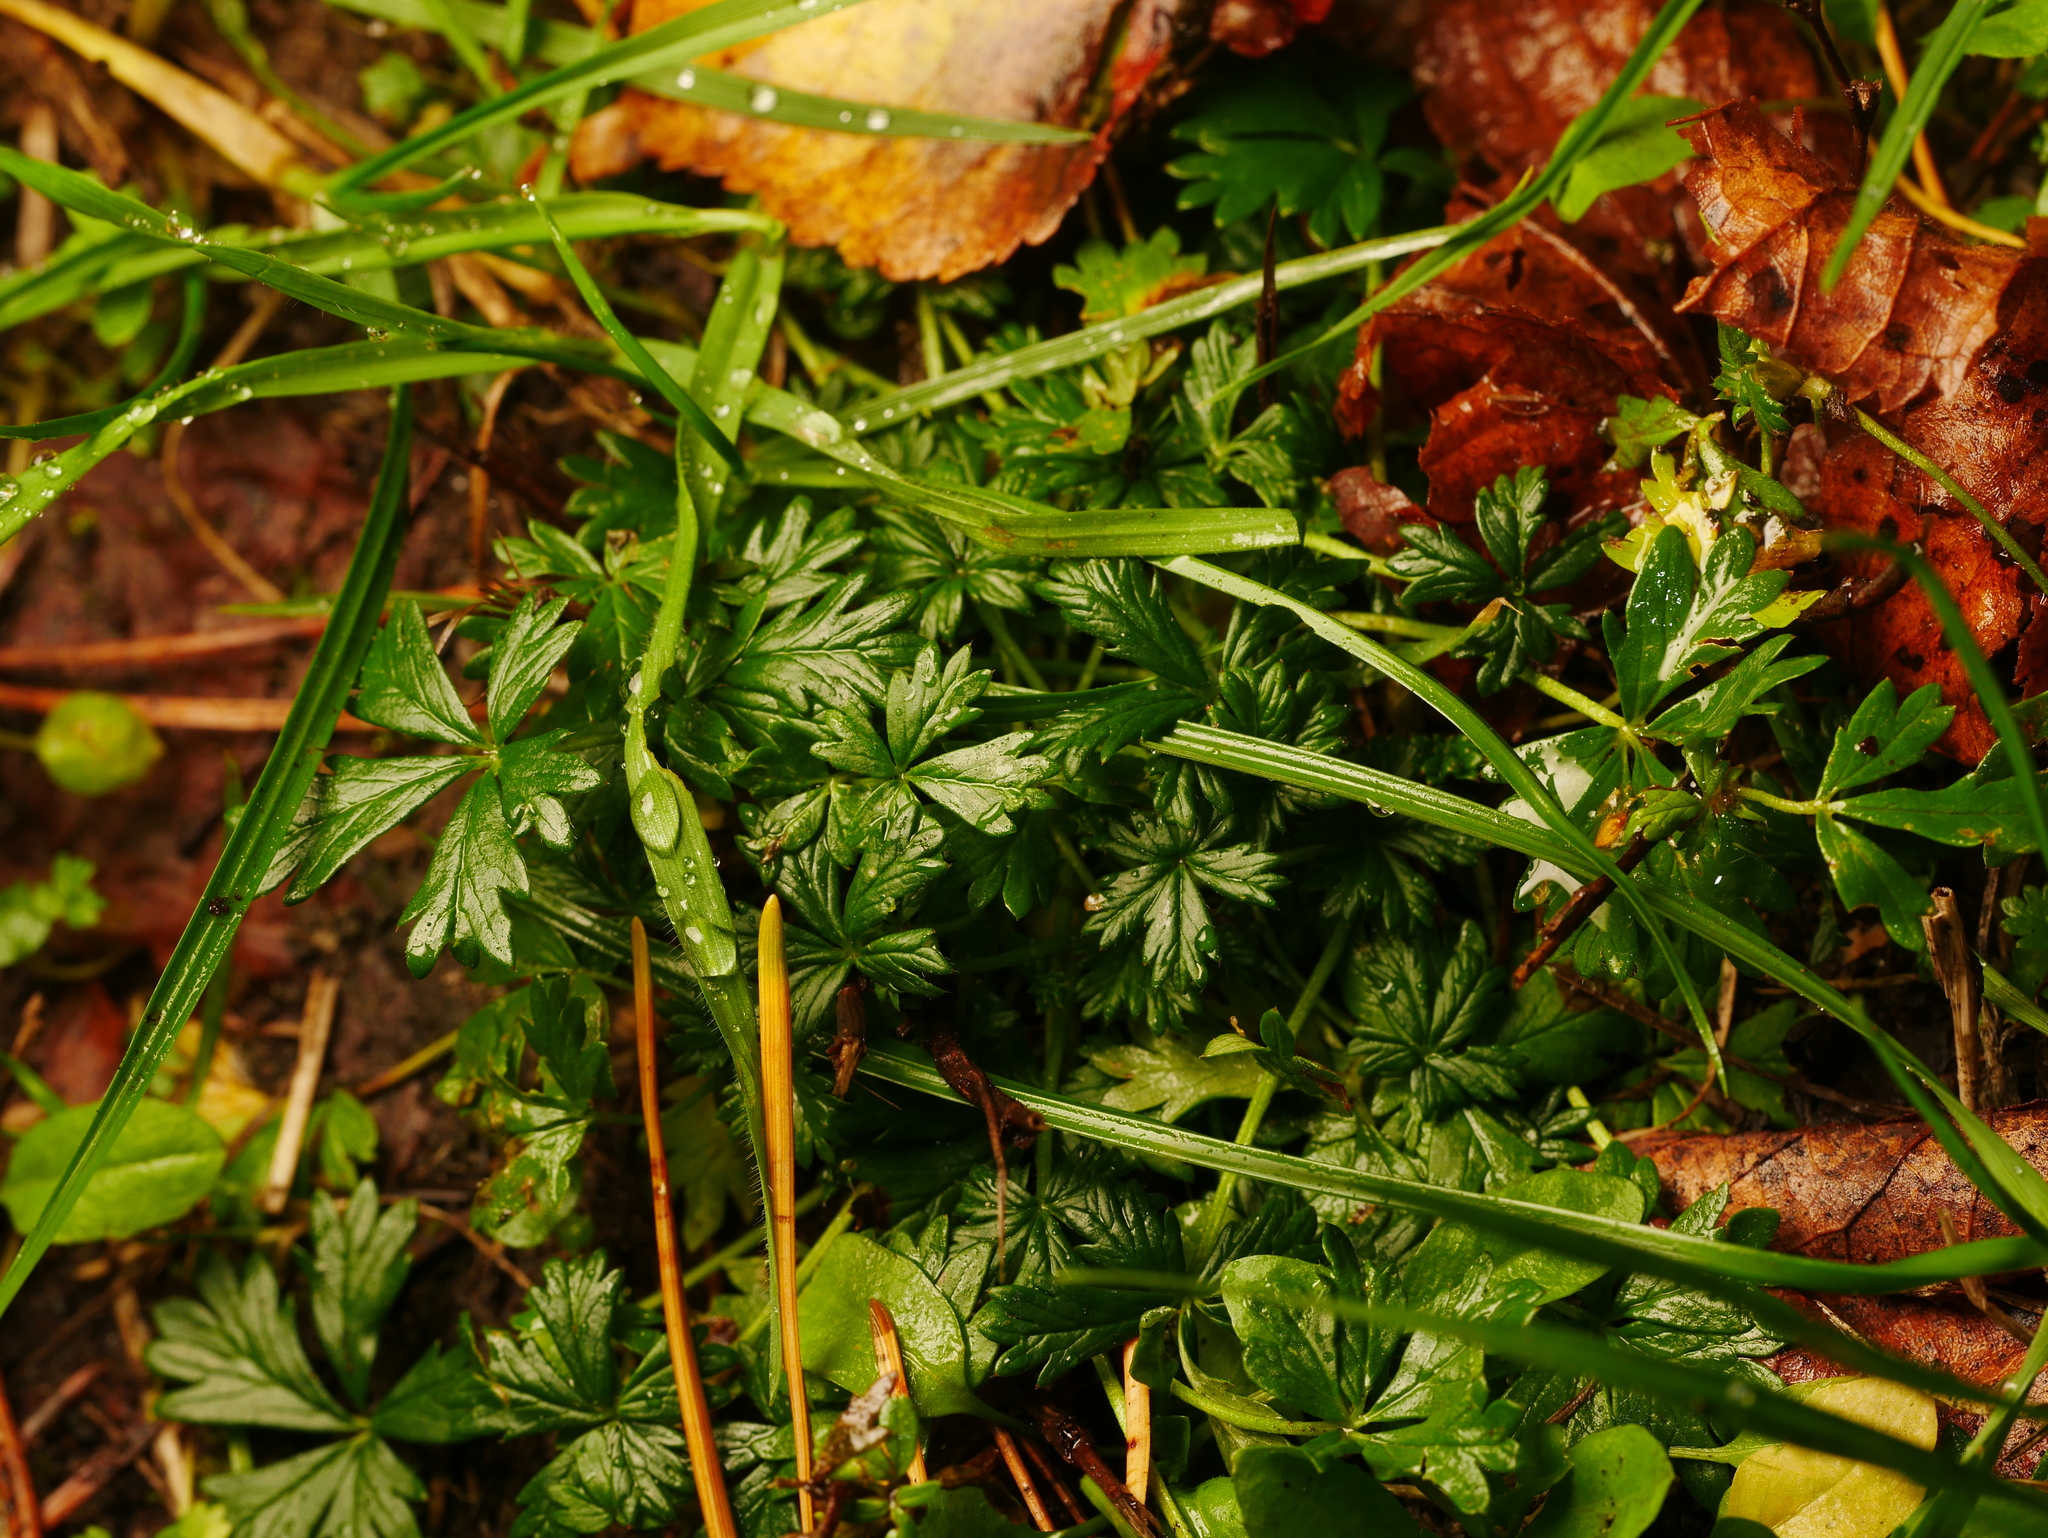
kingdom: Plantae
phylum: Tracheophyta
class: Magnoliopsida
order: Rosales
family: Rosaceae
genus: Potentilla
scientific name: Potentilla argentea
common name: Hoary cinquefoil
